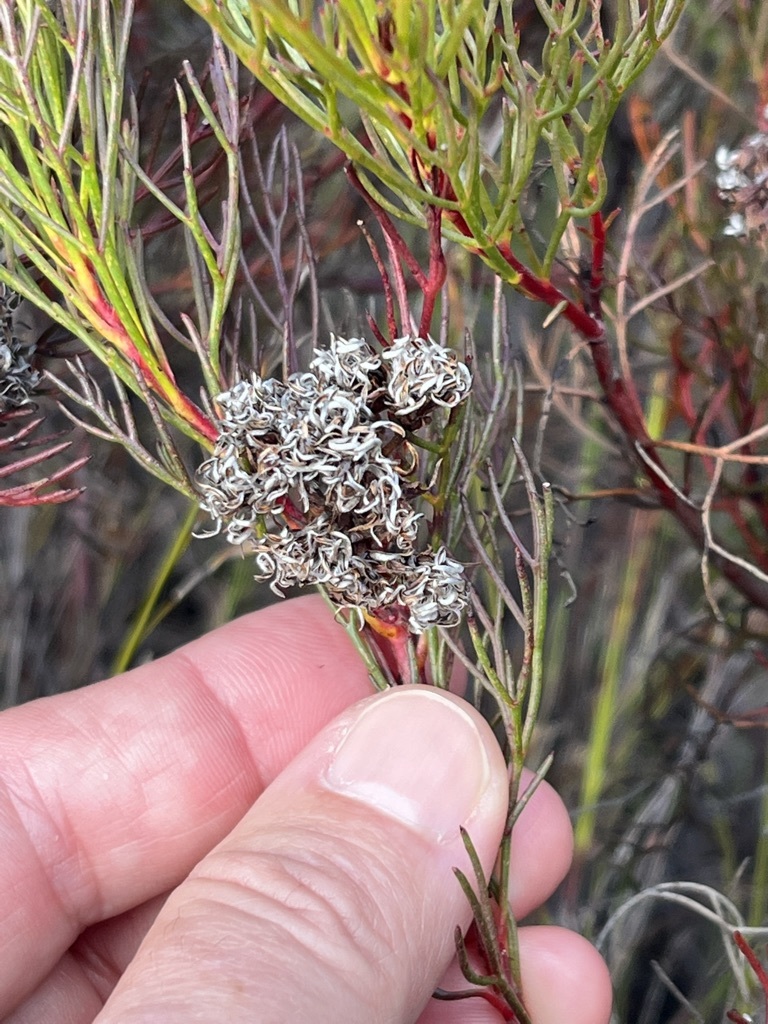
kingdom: Plantae
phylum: Tracheophyta
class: Magnoliopsida
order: Proteales
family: Proteaceae
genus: Serruria
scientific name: Serruria bolusii
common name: Agulhas spiderhead
